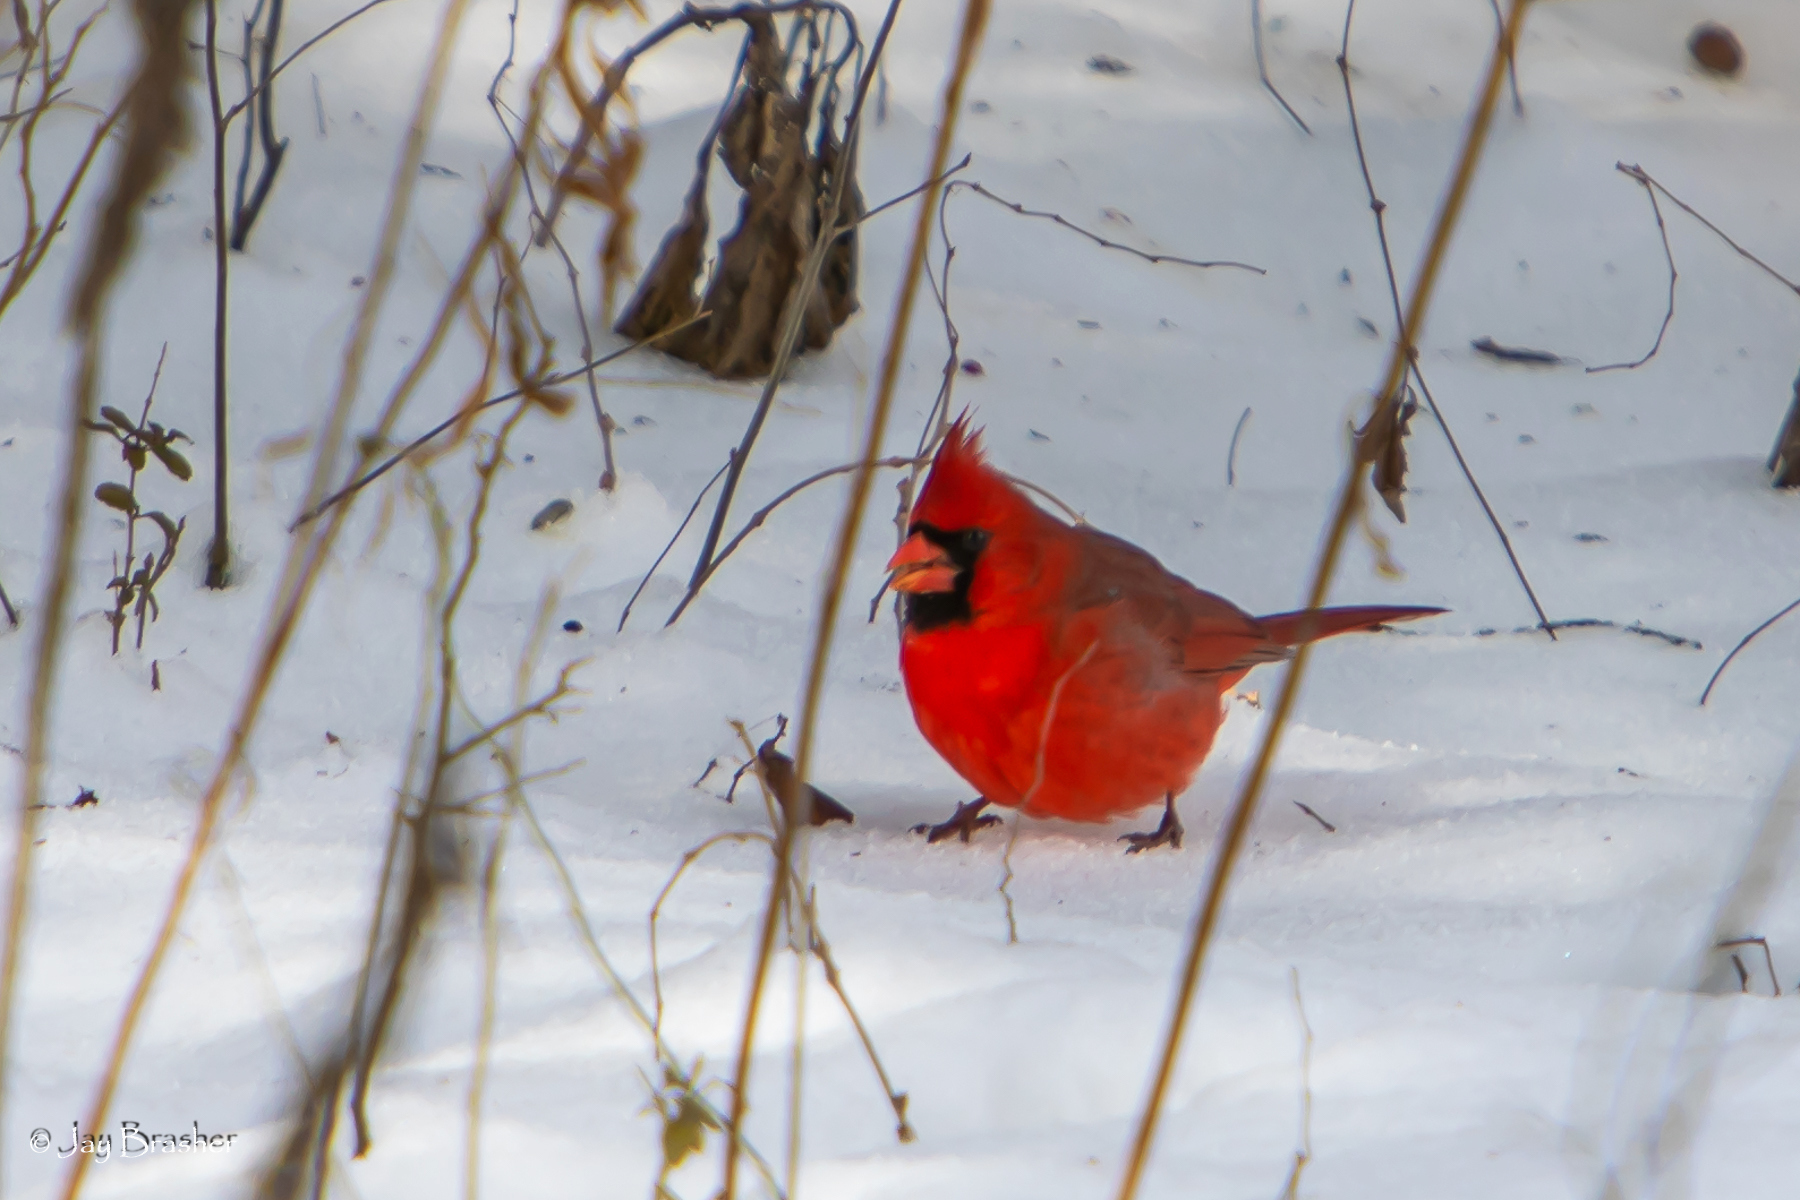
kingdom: Animalia
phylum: Chordata
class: Aves
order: Passeriformes
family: Cardinalidae
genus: Cardinalis
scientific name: Cardinalis cardinalis
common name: Northern cardinal
